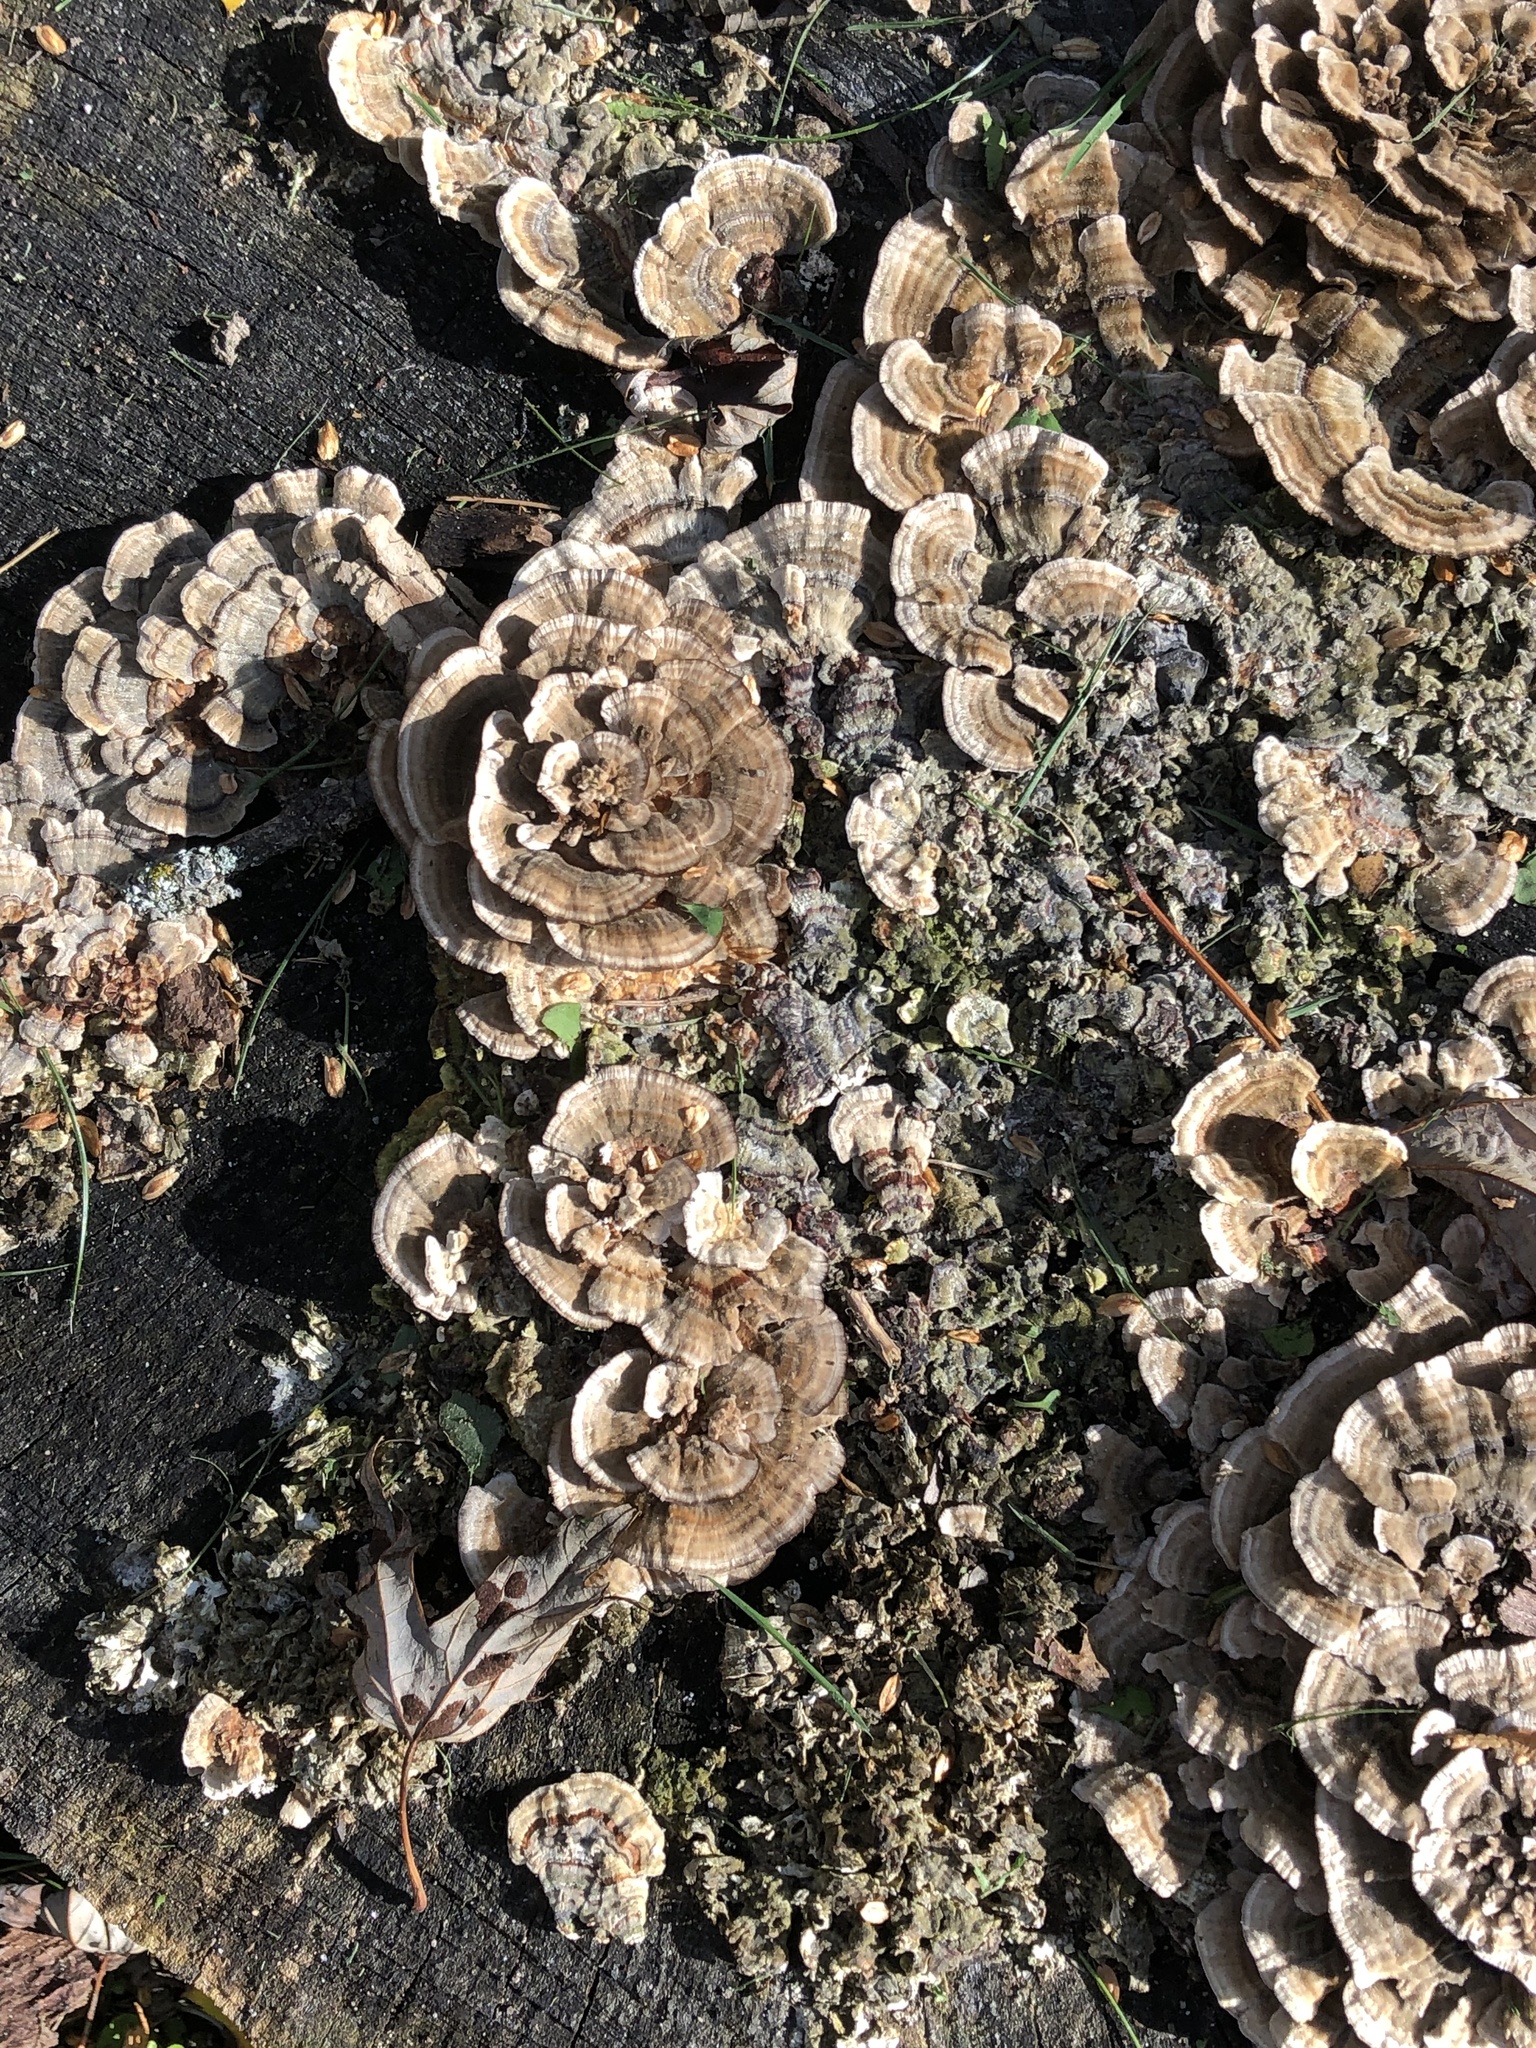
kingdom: Fungi
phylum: Basidiomycota
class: Agaricomycetes
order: Polyporales
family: Polyporaceae
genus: Trametes
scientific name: Trametes versicolor
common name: Turkeytail
